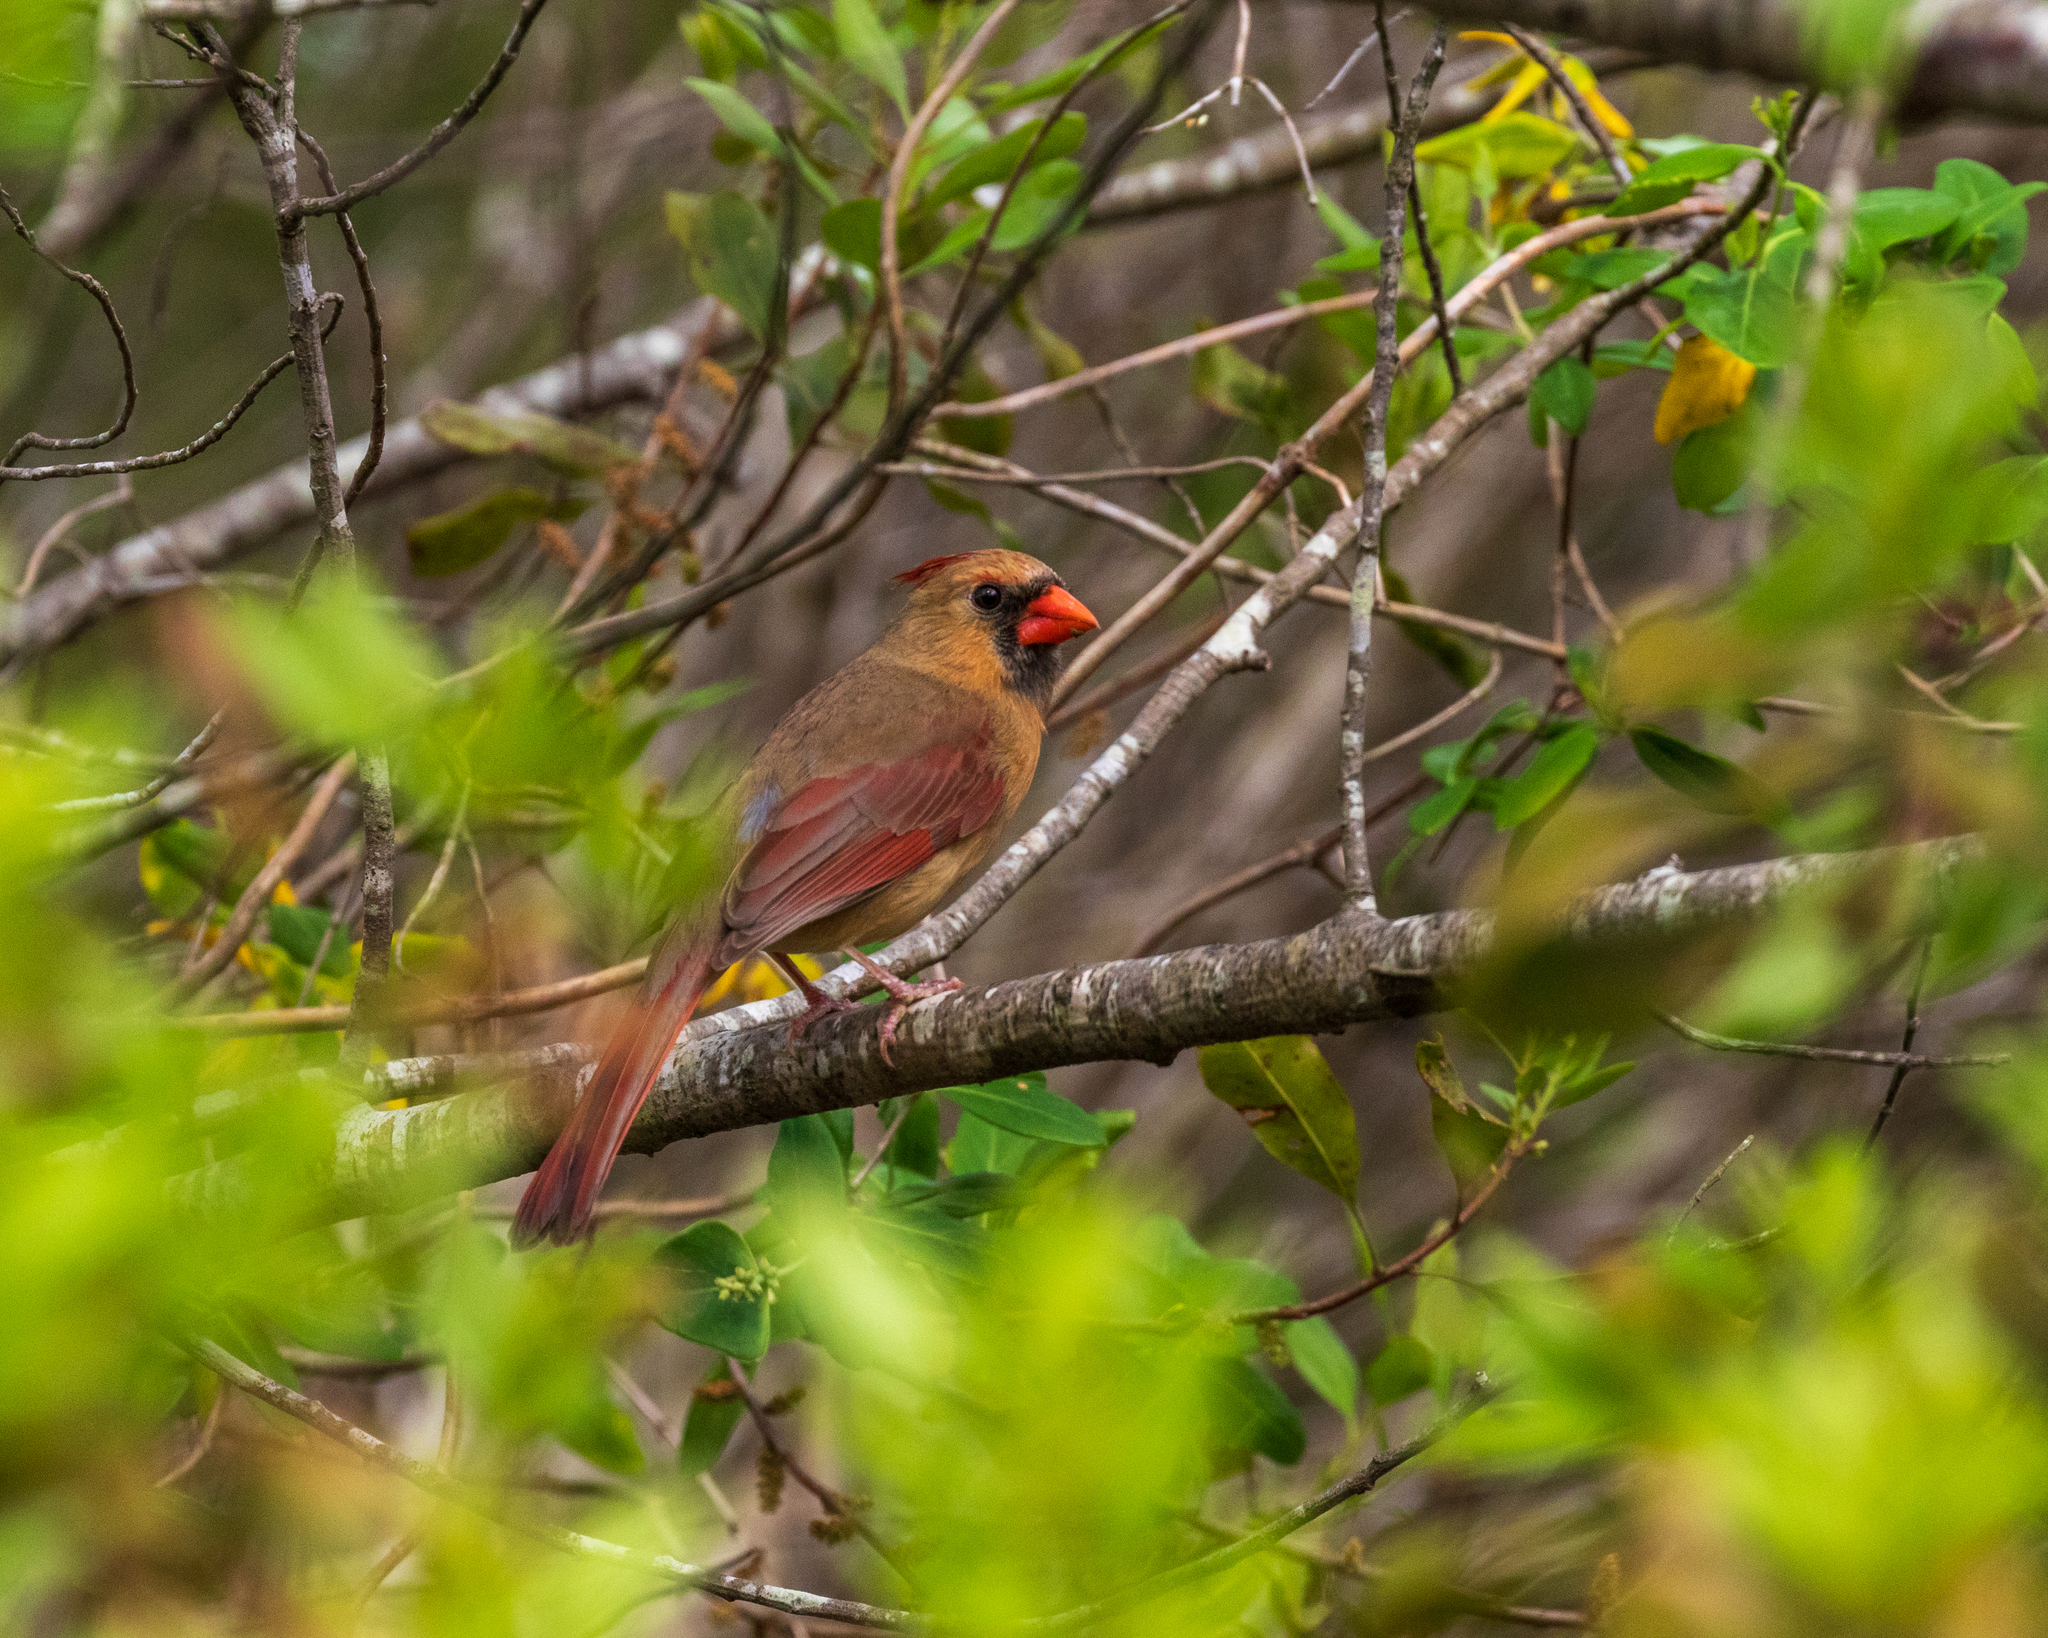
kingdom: Animalia
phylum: Chordata
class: Aves
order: Passeriformes
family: Cardinalidae
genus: Cardinalis
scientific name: Cardinalis cardinalis
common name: Northern cardinal
